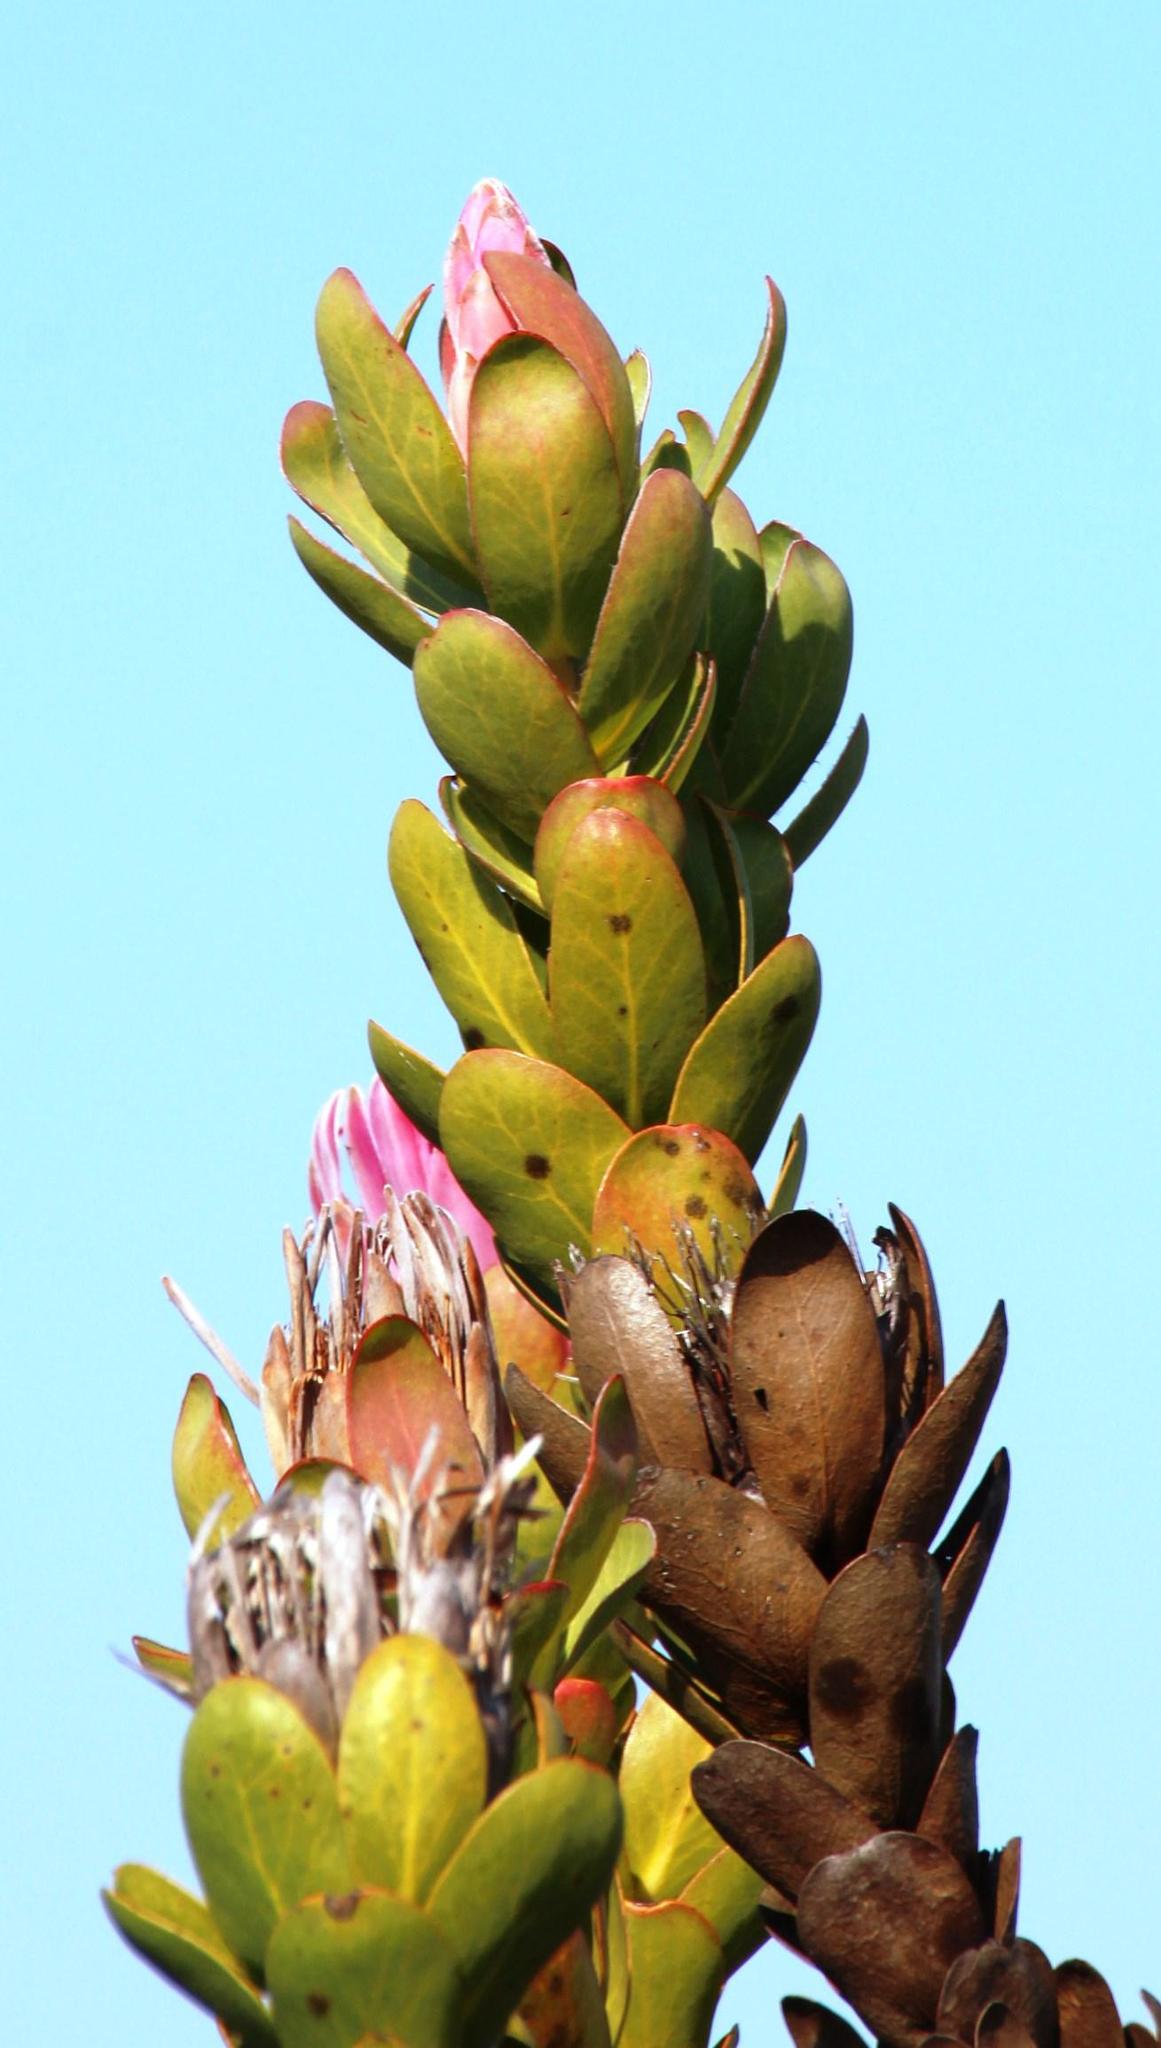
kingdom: Plantae
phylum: Tracheophyta
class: Magnoliopsida
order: Proteales
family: Proteaceae
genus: Protea
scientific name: Protea compacta
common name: Bot river protea
